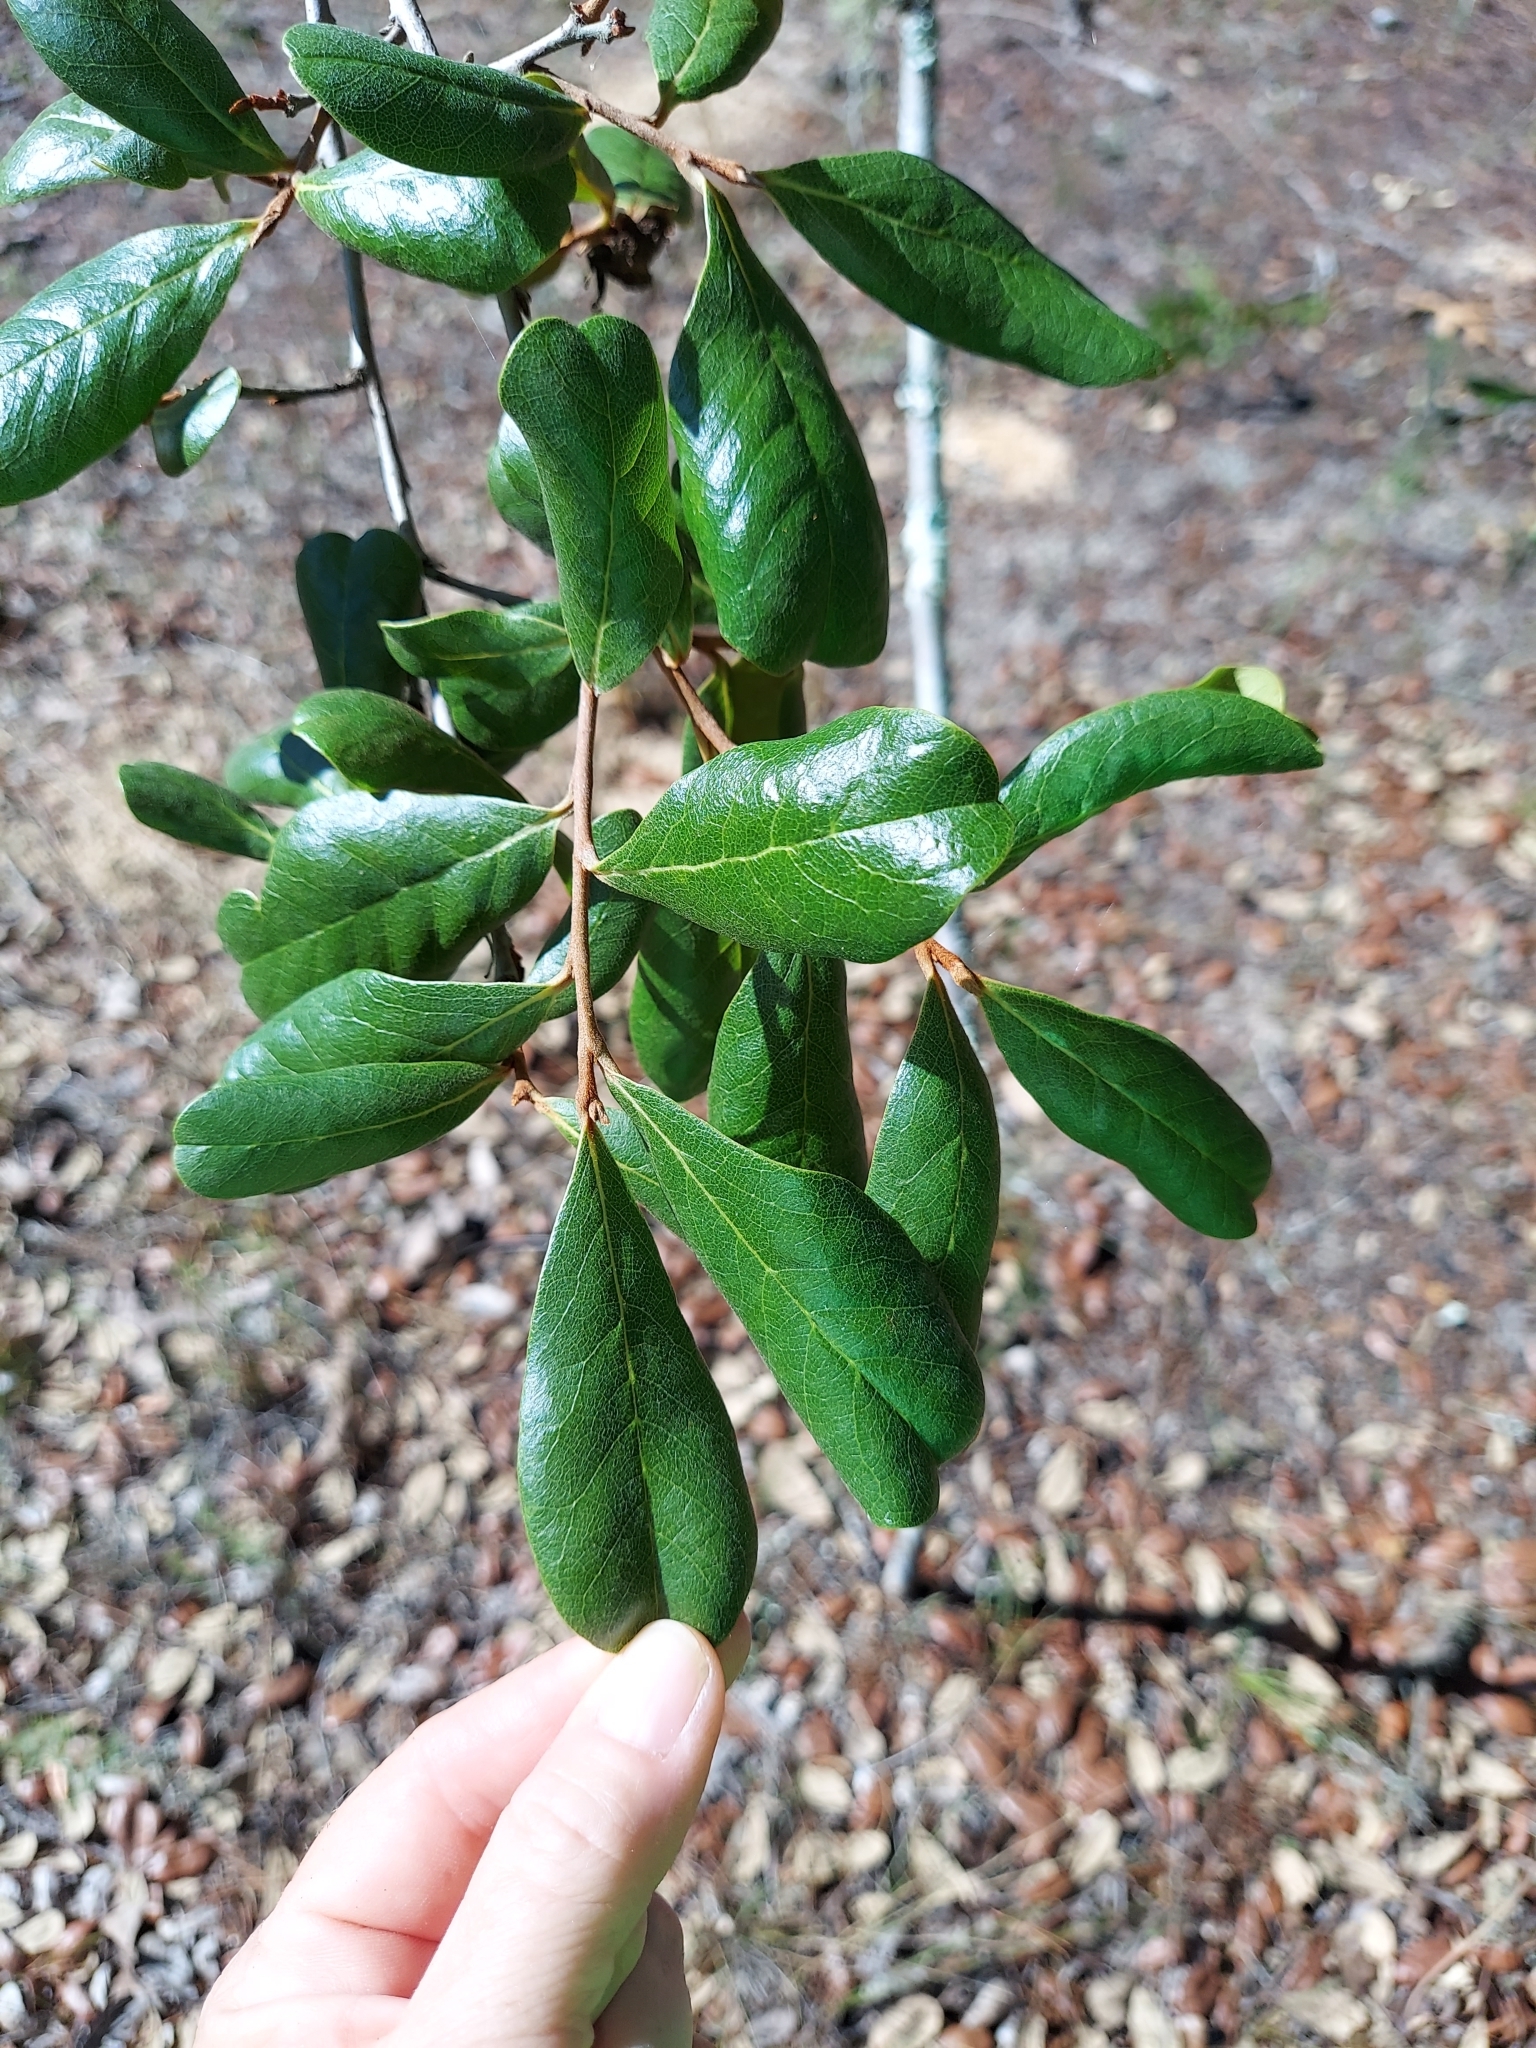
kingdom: Plantae
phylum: Tracheophyta
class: Magnoliopsida
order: Magnoliales
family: Annonaceae
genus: Asimina
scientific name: Asimina obovata
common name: Flag pawpaw
